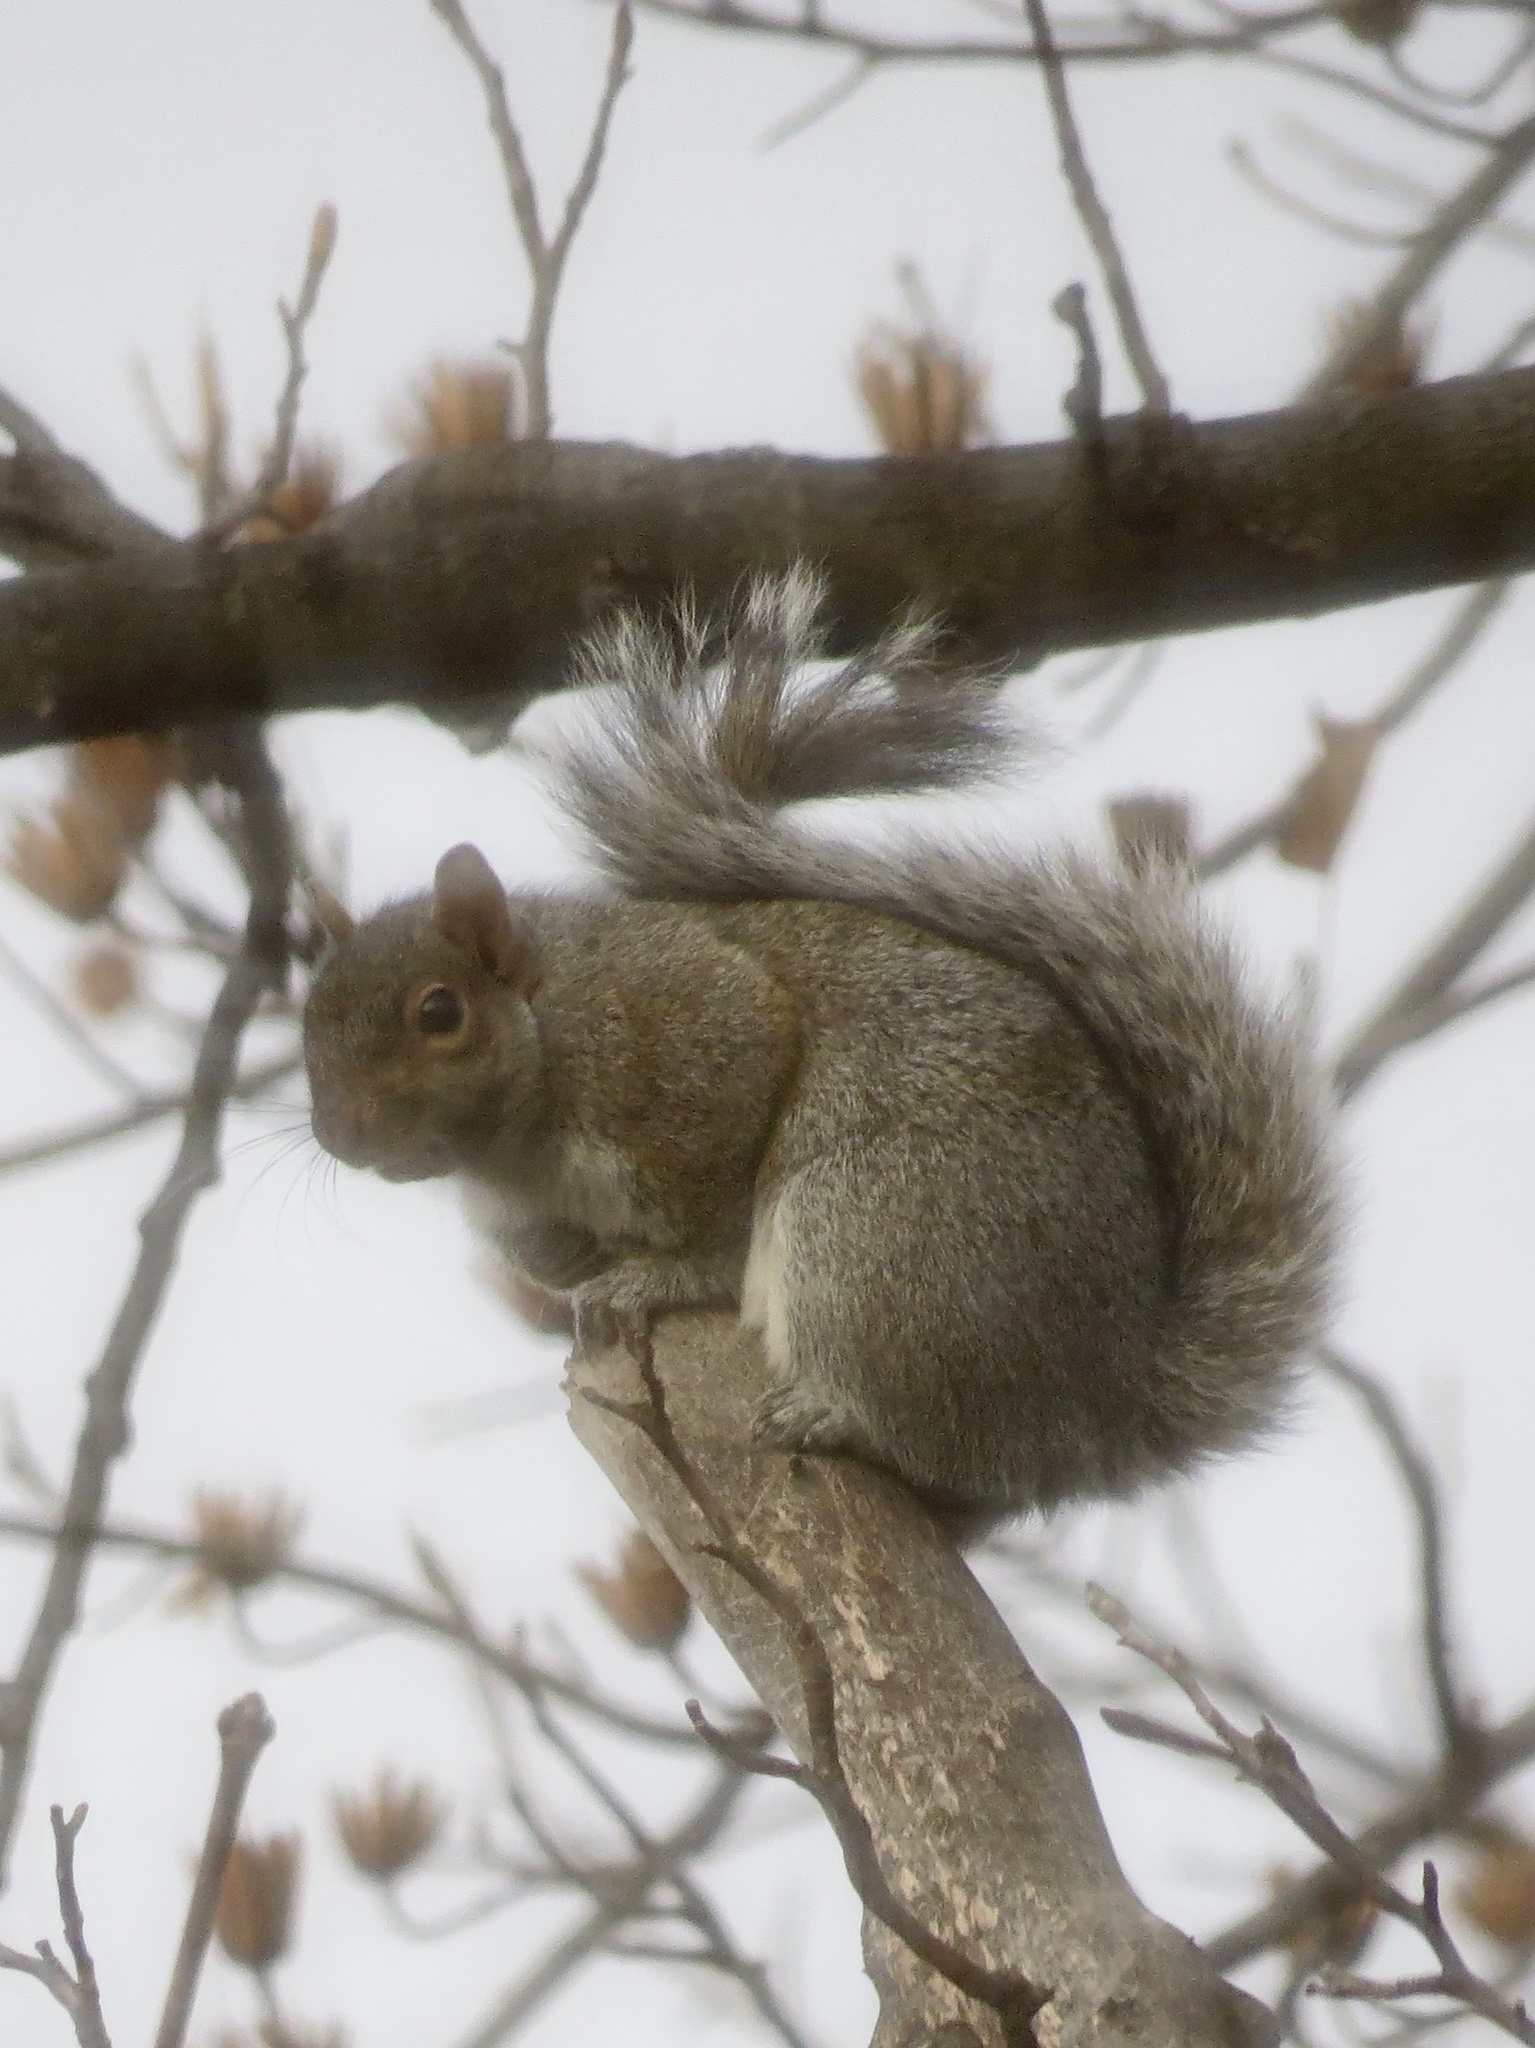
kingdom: Animalia
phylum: Chordata
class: Mammalia
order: Rodentia
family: Sciuridae
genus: Sciurus
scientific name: Sciurus carolinensis
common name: Eastern gray squirrel
